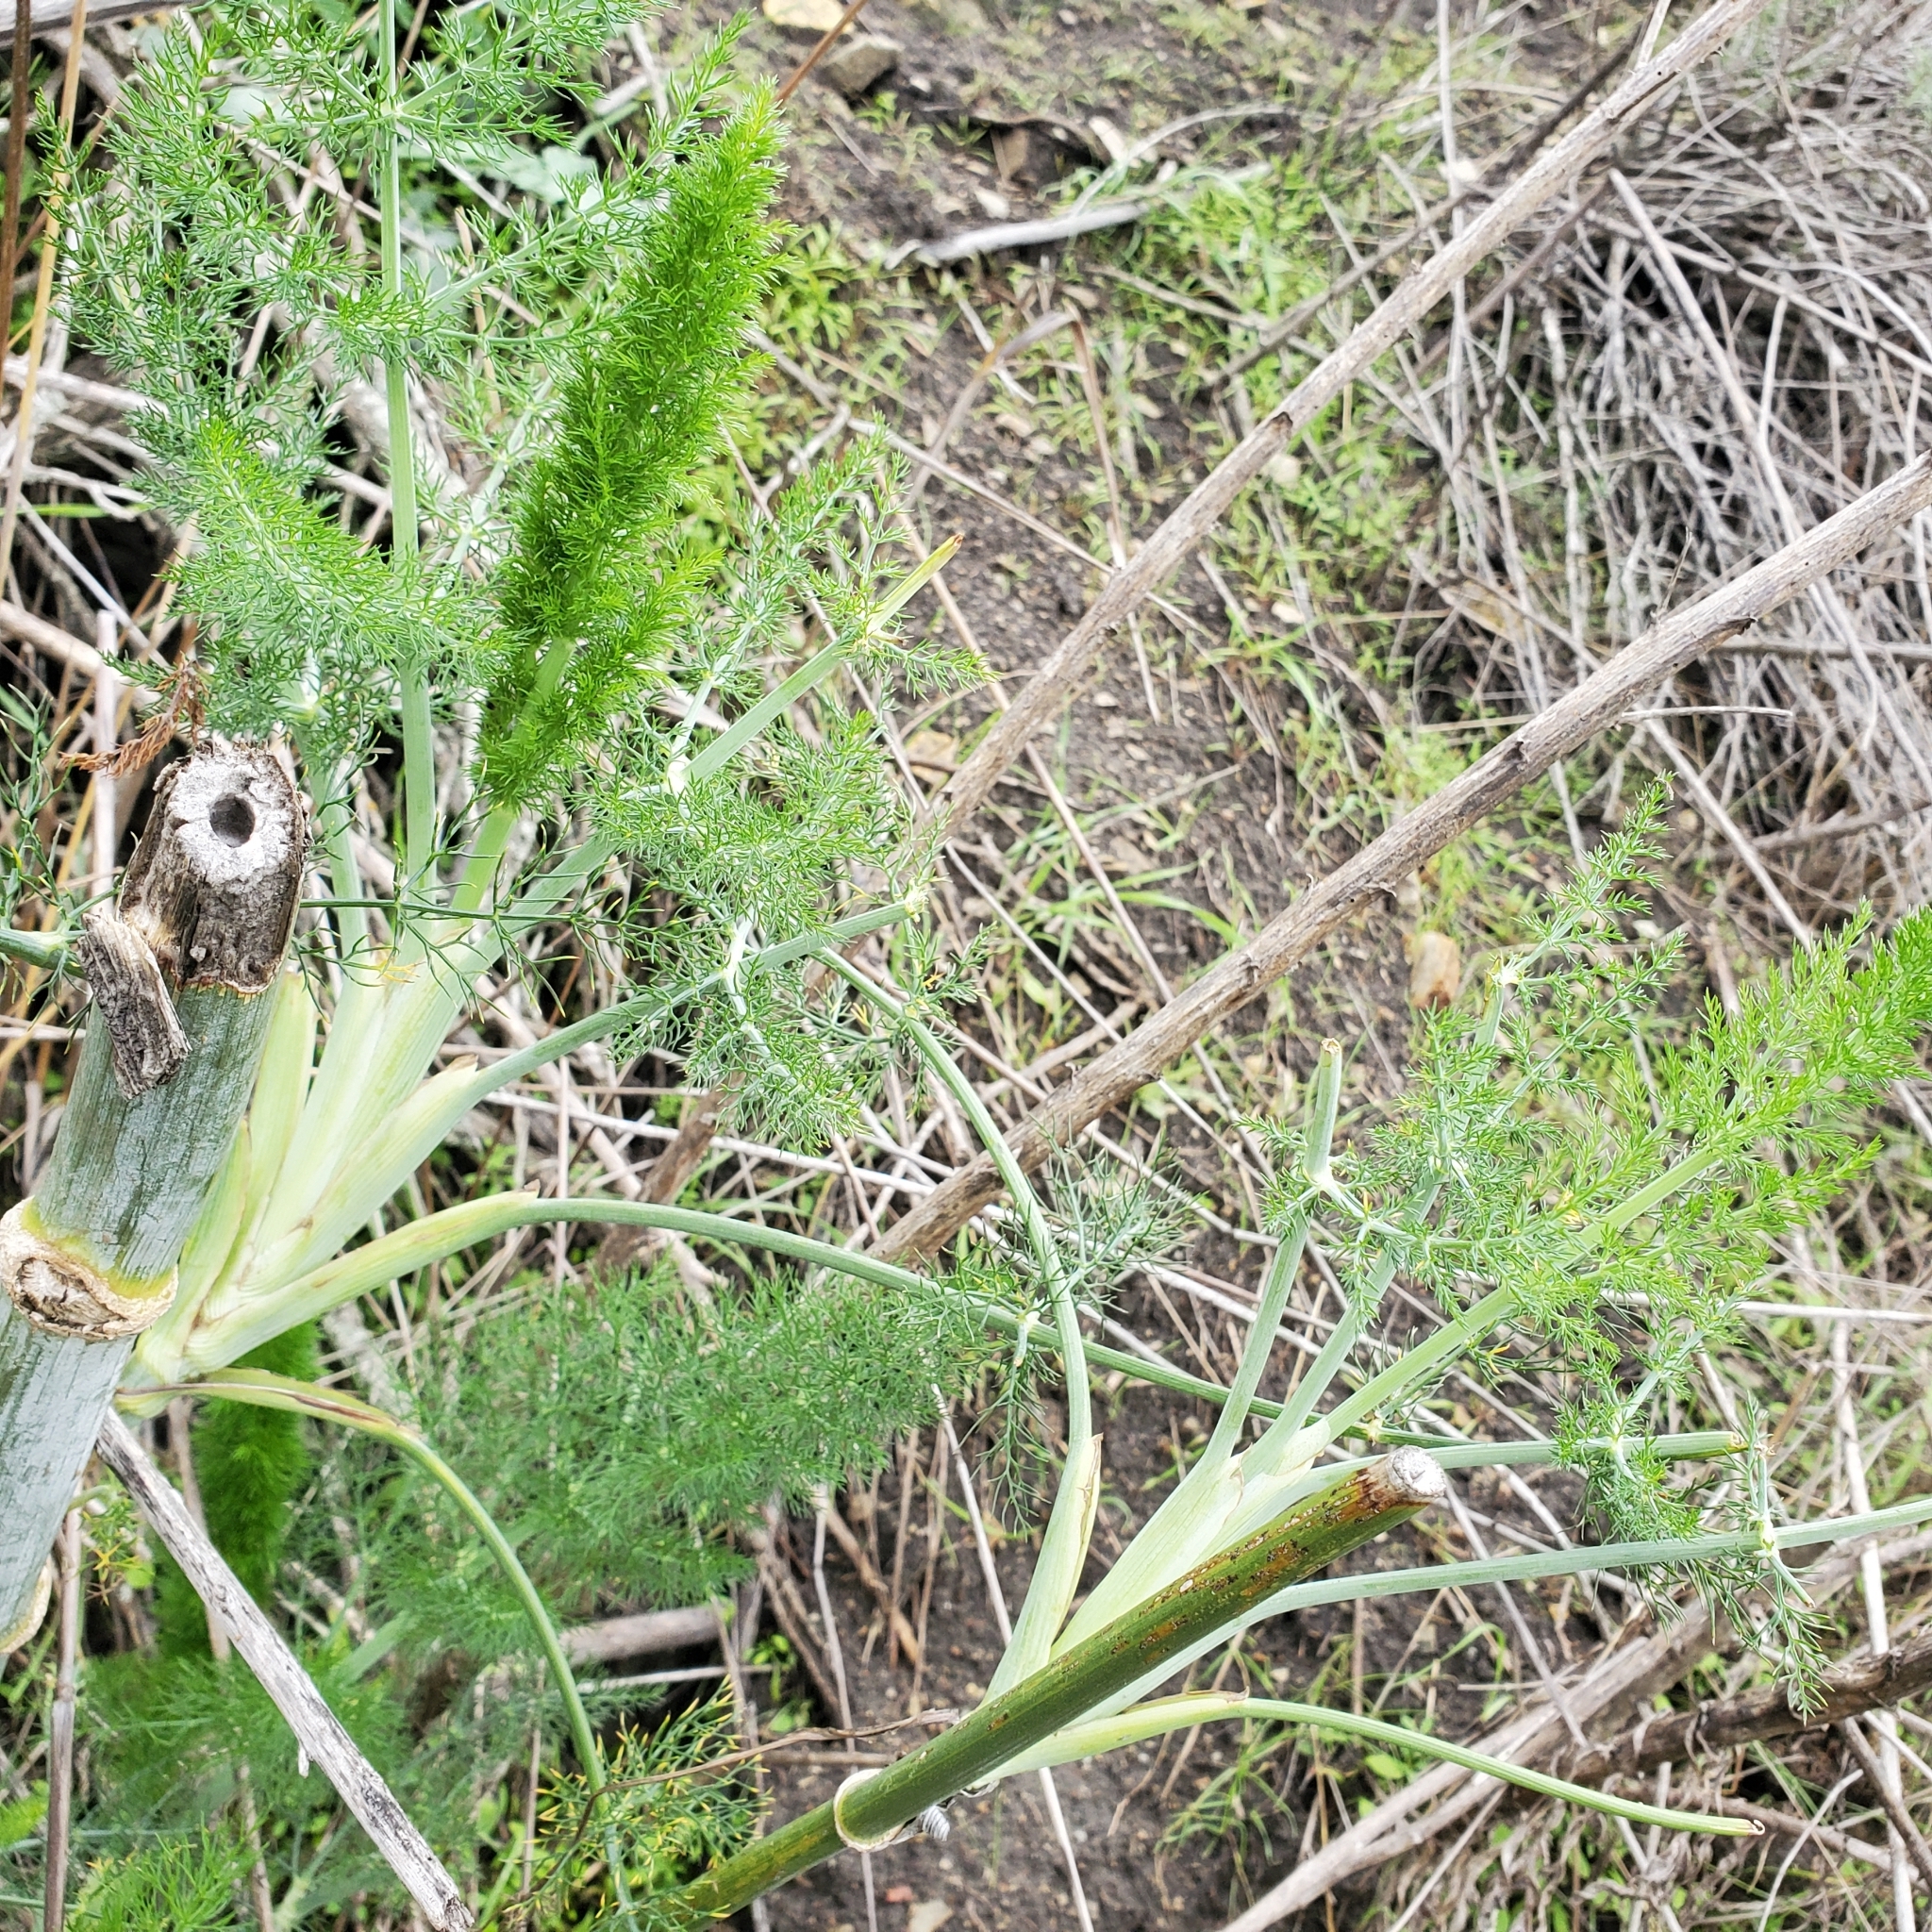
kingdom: Plantae
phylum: Tracheophyta
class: Magnoliopsida
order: Apiales
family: Apiaceae
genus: Foeniculum
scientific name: Foeniculum vulgare
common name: Fennel
